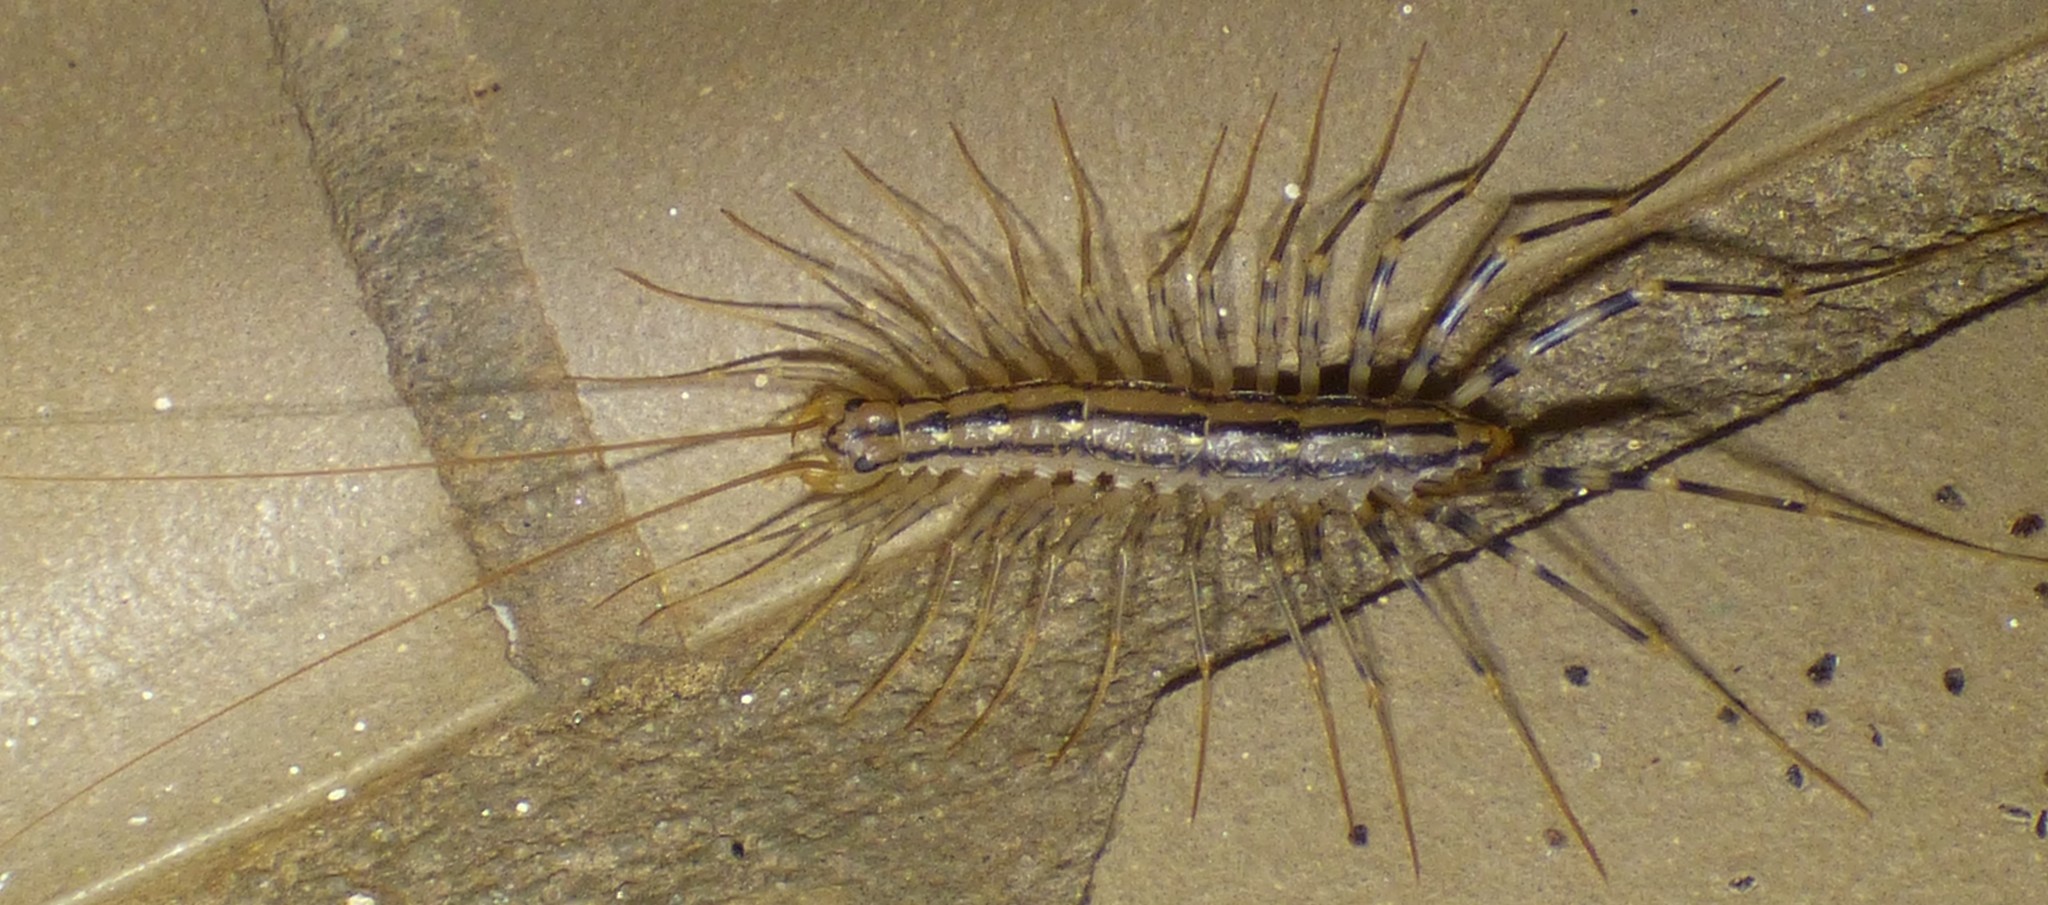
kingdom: Animalia
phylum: Arthropoda
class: Chilopoda
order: Scutigeromorpha
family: Scutigeridae
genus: Scutigera
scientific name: Scutigera coleoptrata
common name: House centipede
